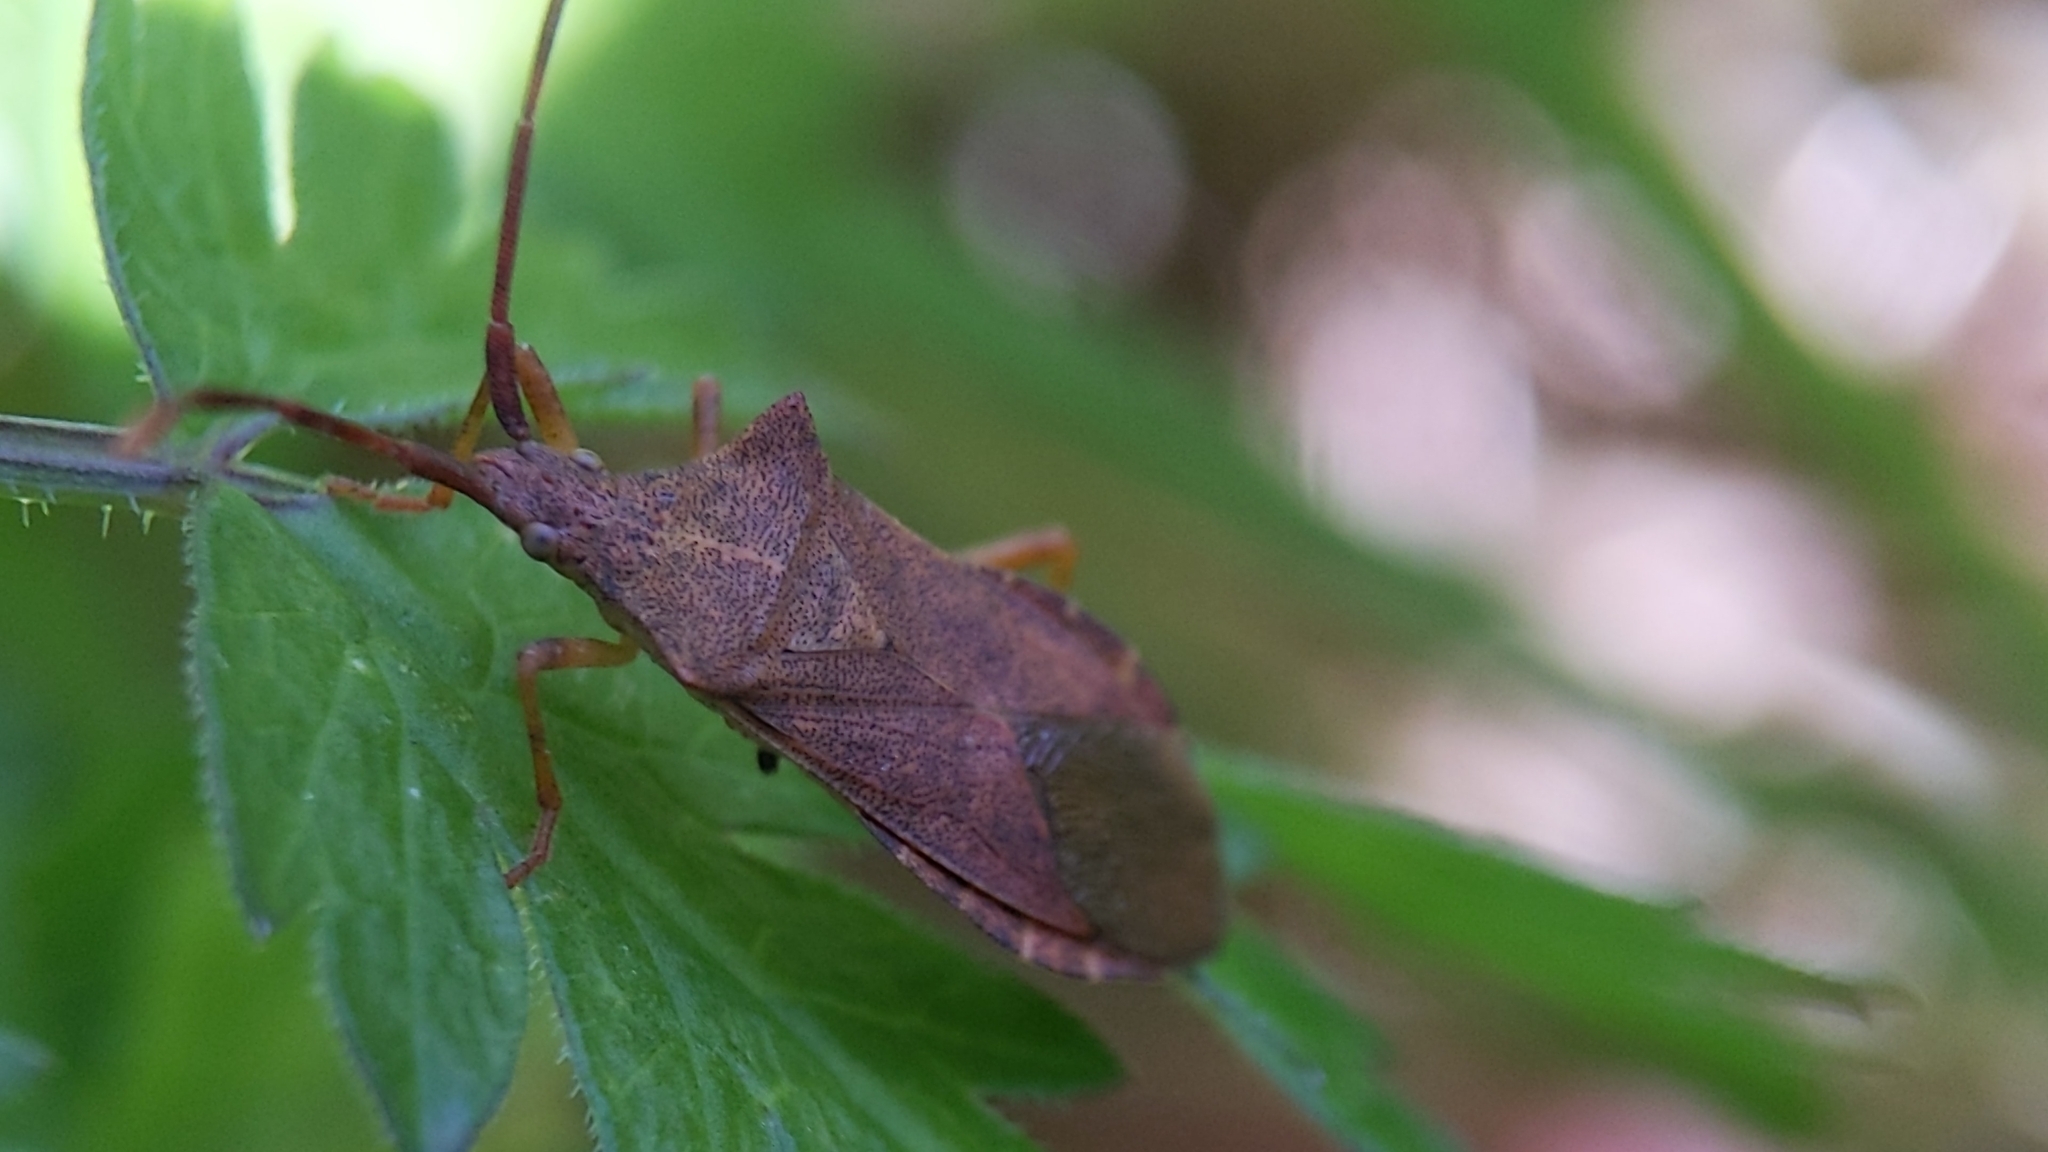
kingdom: Animalia
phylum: Arthropoda
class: Insecta
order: Hemiptera
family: Coreidae
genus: Gonocerus
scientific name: Gonocerus acuteangulatus
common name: Box bug
